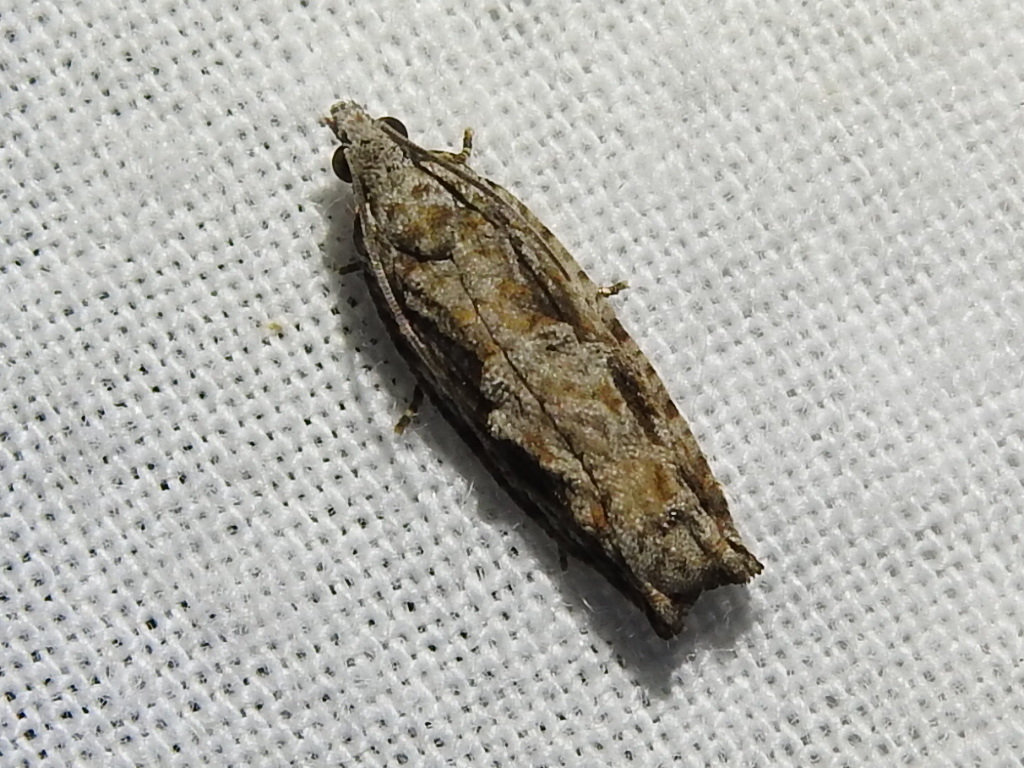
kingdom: Animalia
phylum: Arthropoda
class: Insecta
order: Lepidoptera
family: Tortricidae
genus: Gretchena
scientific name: Gretchena bolliana
